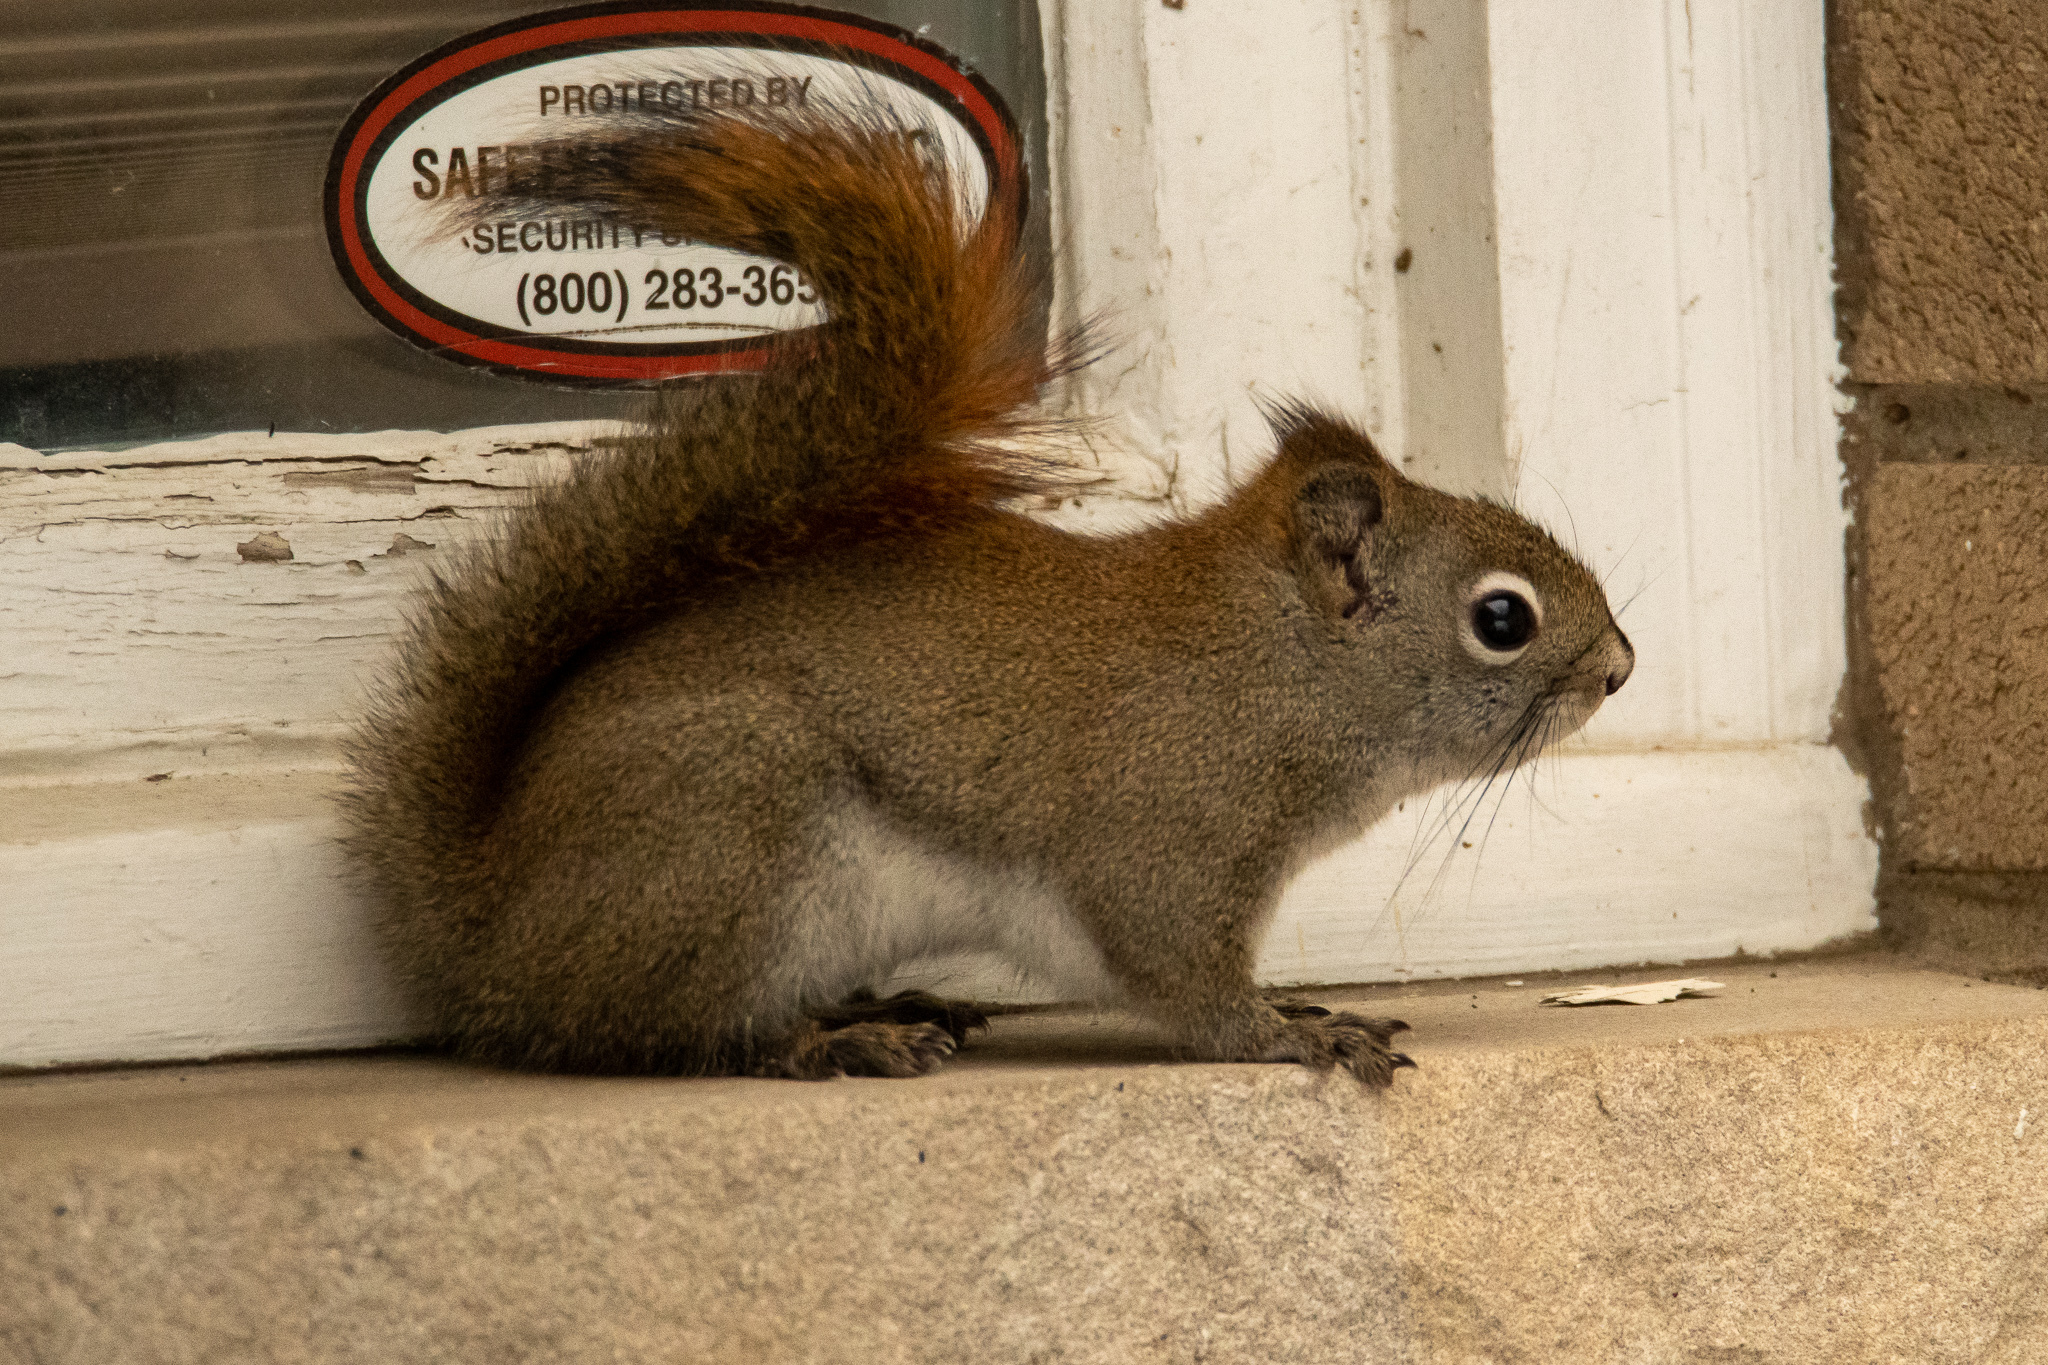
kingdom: Animalia
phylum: Chordata
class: Mammalia
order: Rodentia
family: Sciuridae
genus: Tamiasciurus
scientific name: Tamiasciurus hudsonicus
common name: Red squirrel
